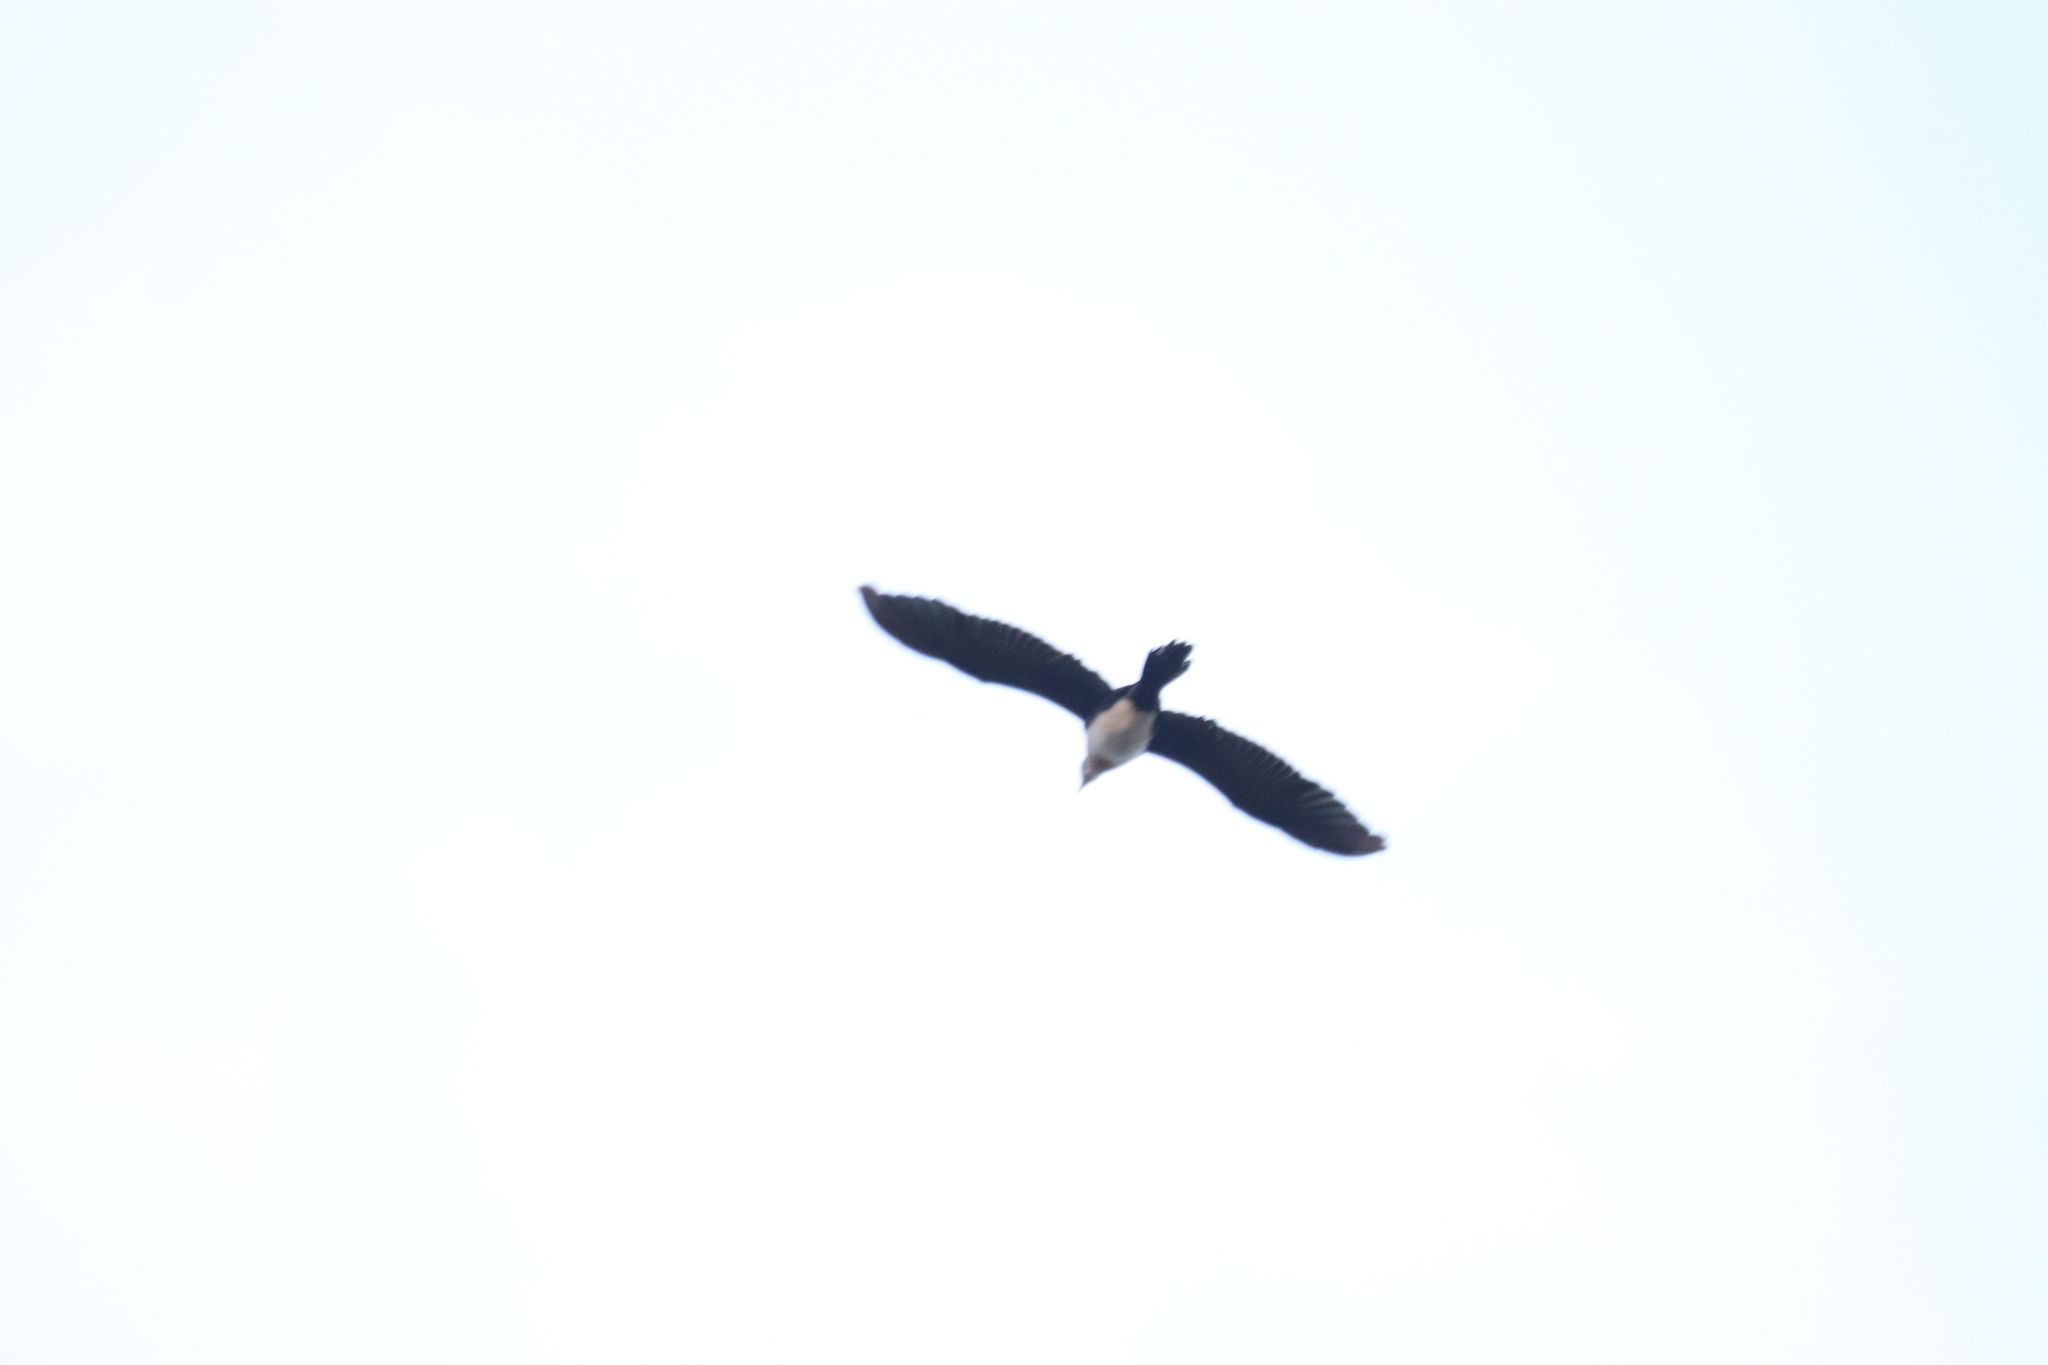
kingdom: Animalia
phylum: Chordata
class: Aves
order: Suliformes
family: Phalacrocoracidae
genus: Microcarbo
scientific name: Microcarbo africanus
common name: Long-tailed cormorant
